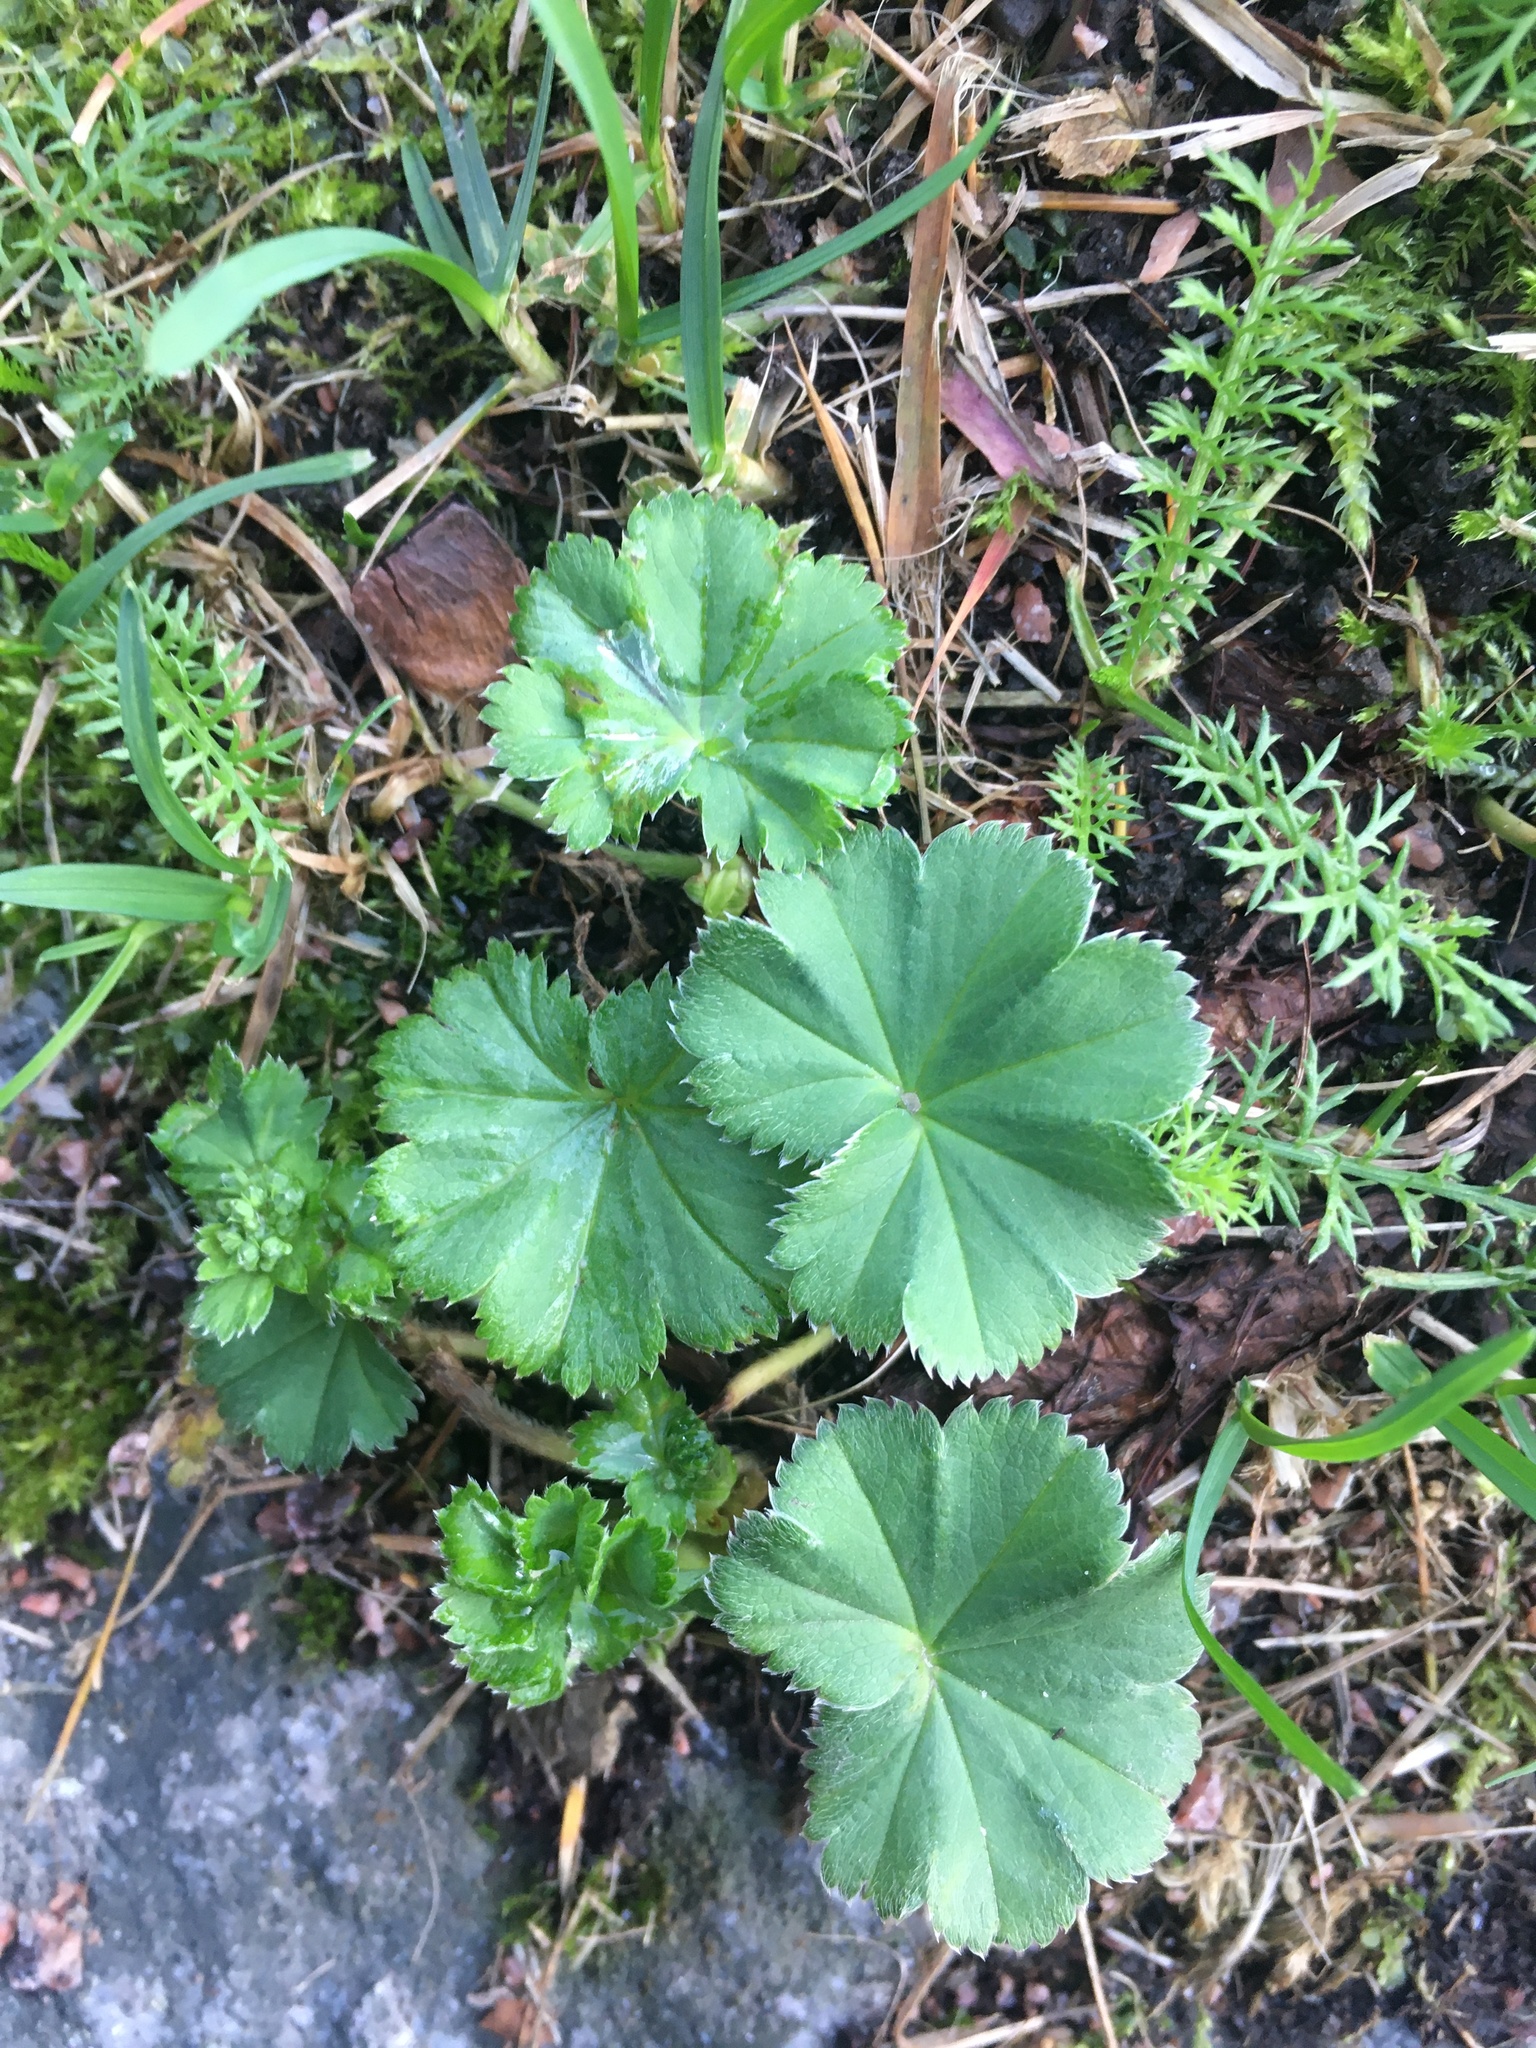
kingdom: Plantae
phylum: Tracheophyta
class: Magnoliopsida
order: Rosales
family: Rosaceae
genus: Alchemilla
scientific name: Alchemilla
